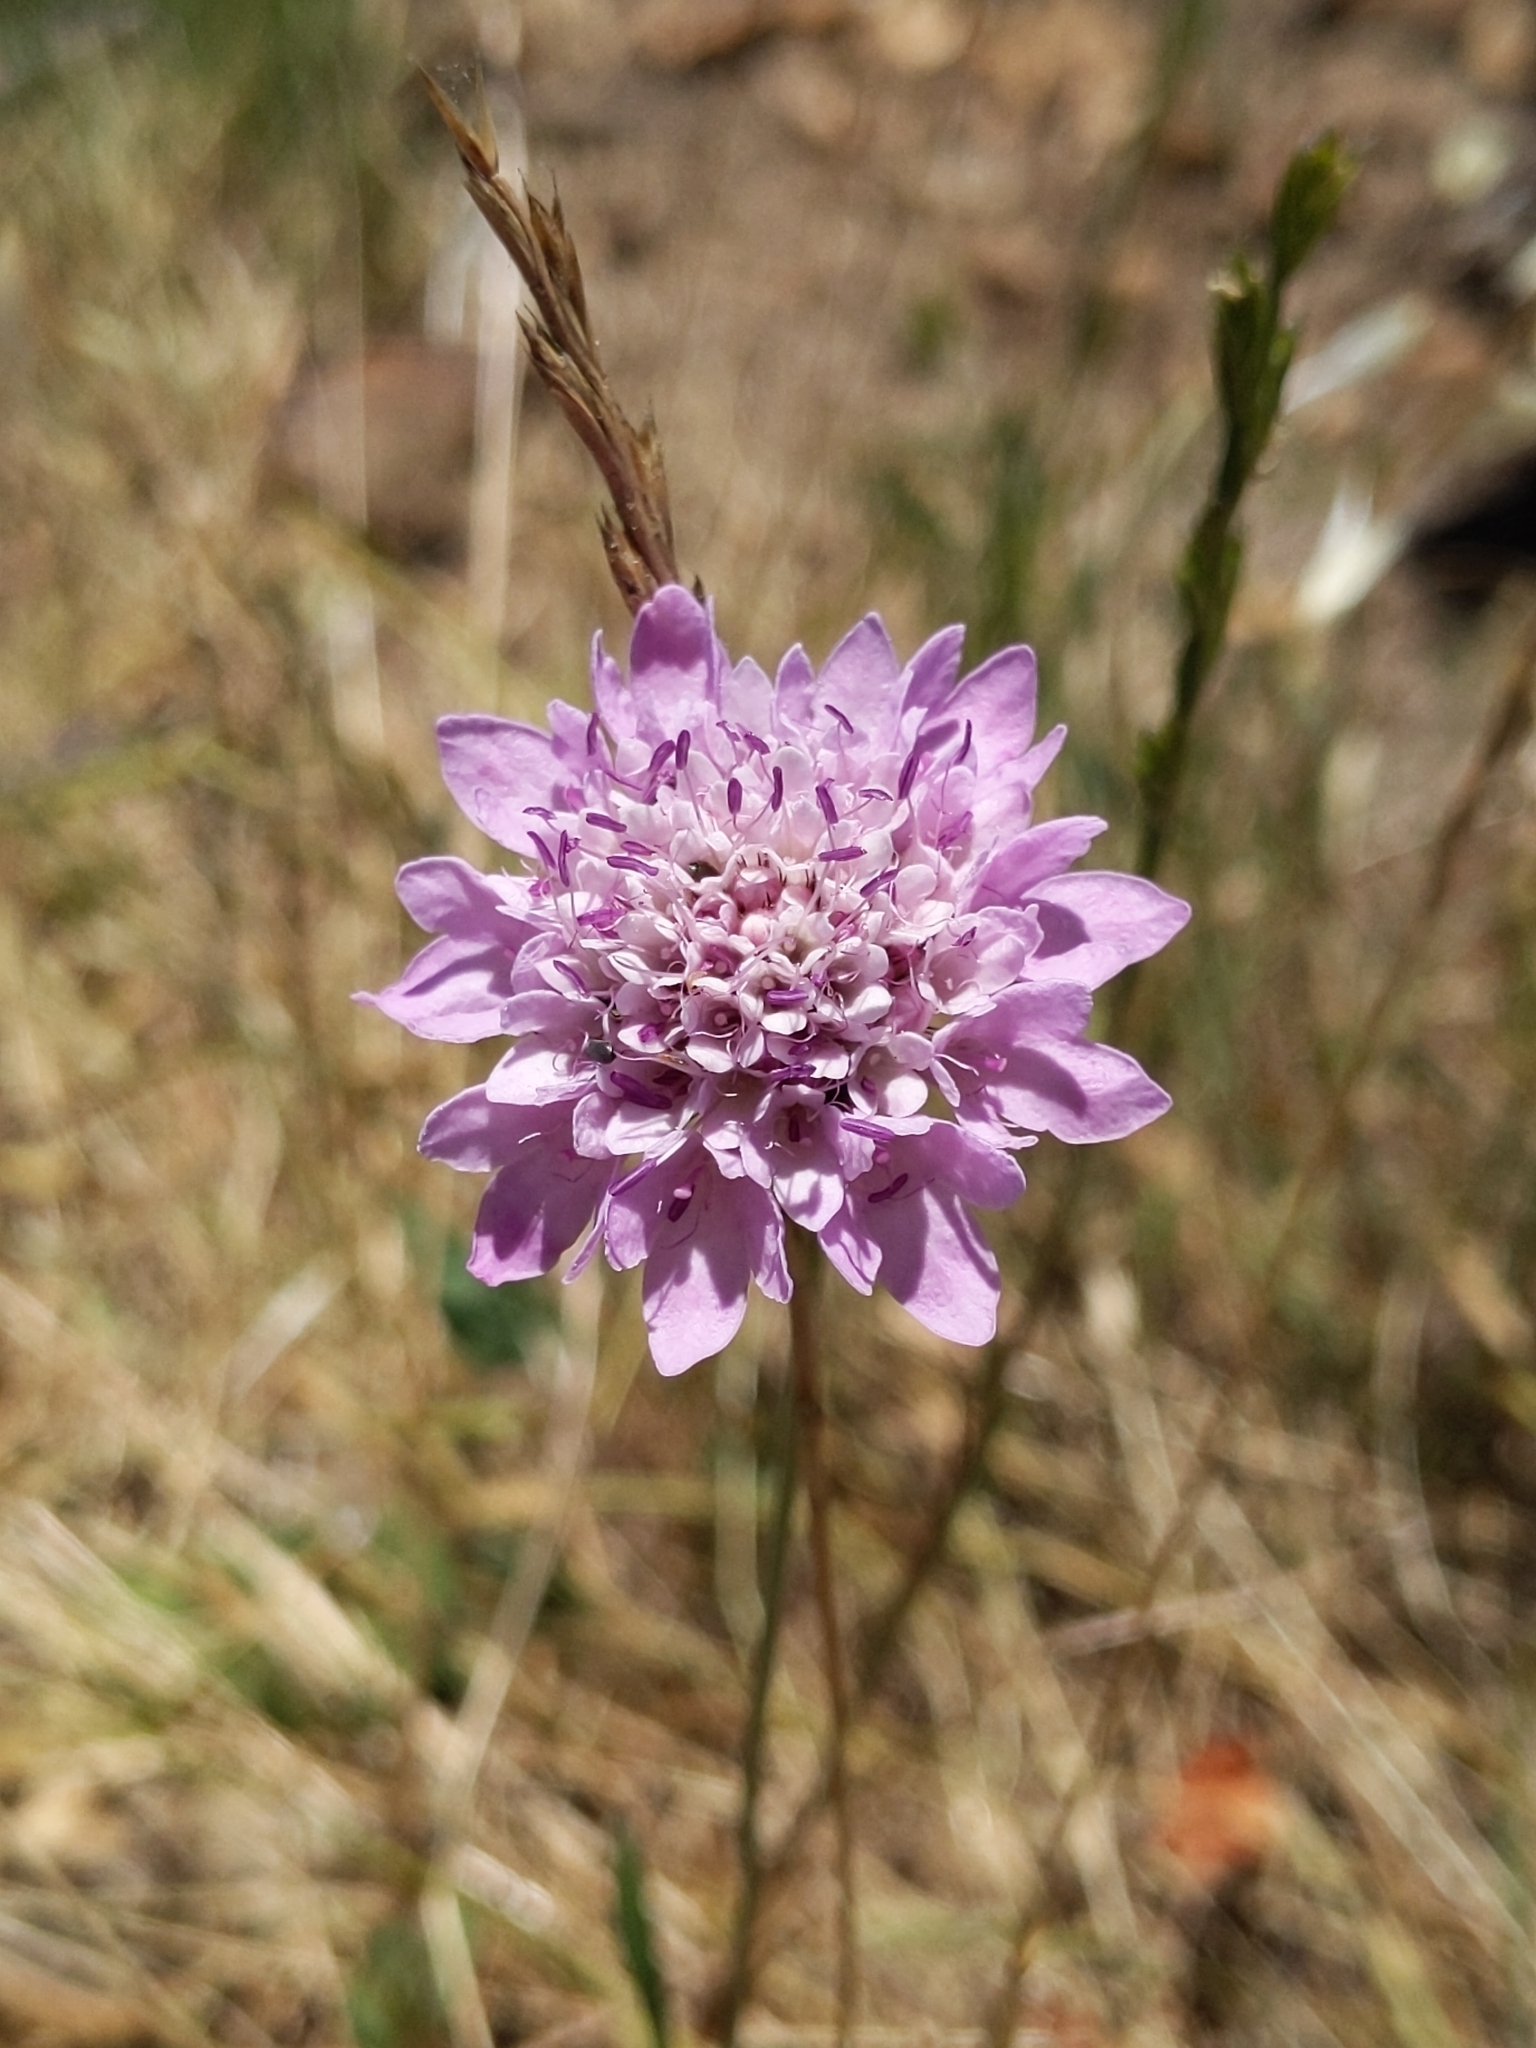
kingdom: Plantae
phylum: Tracheophyta
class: Magnoliopsida
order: Dipsacales
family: Caprifoliaceae
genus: Sixalix
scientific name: Sixalix atropurpurea
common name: Sweet scabious
